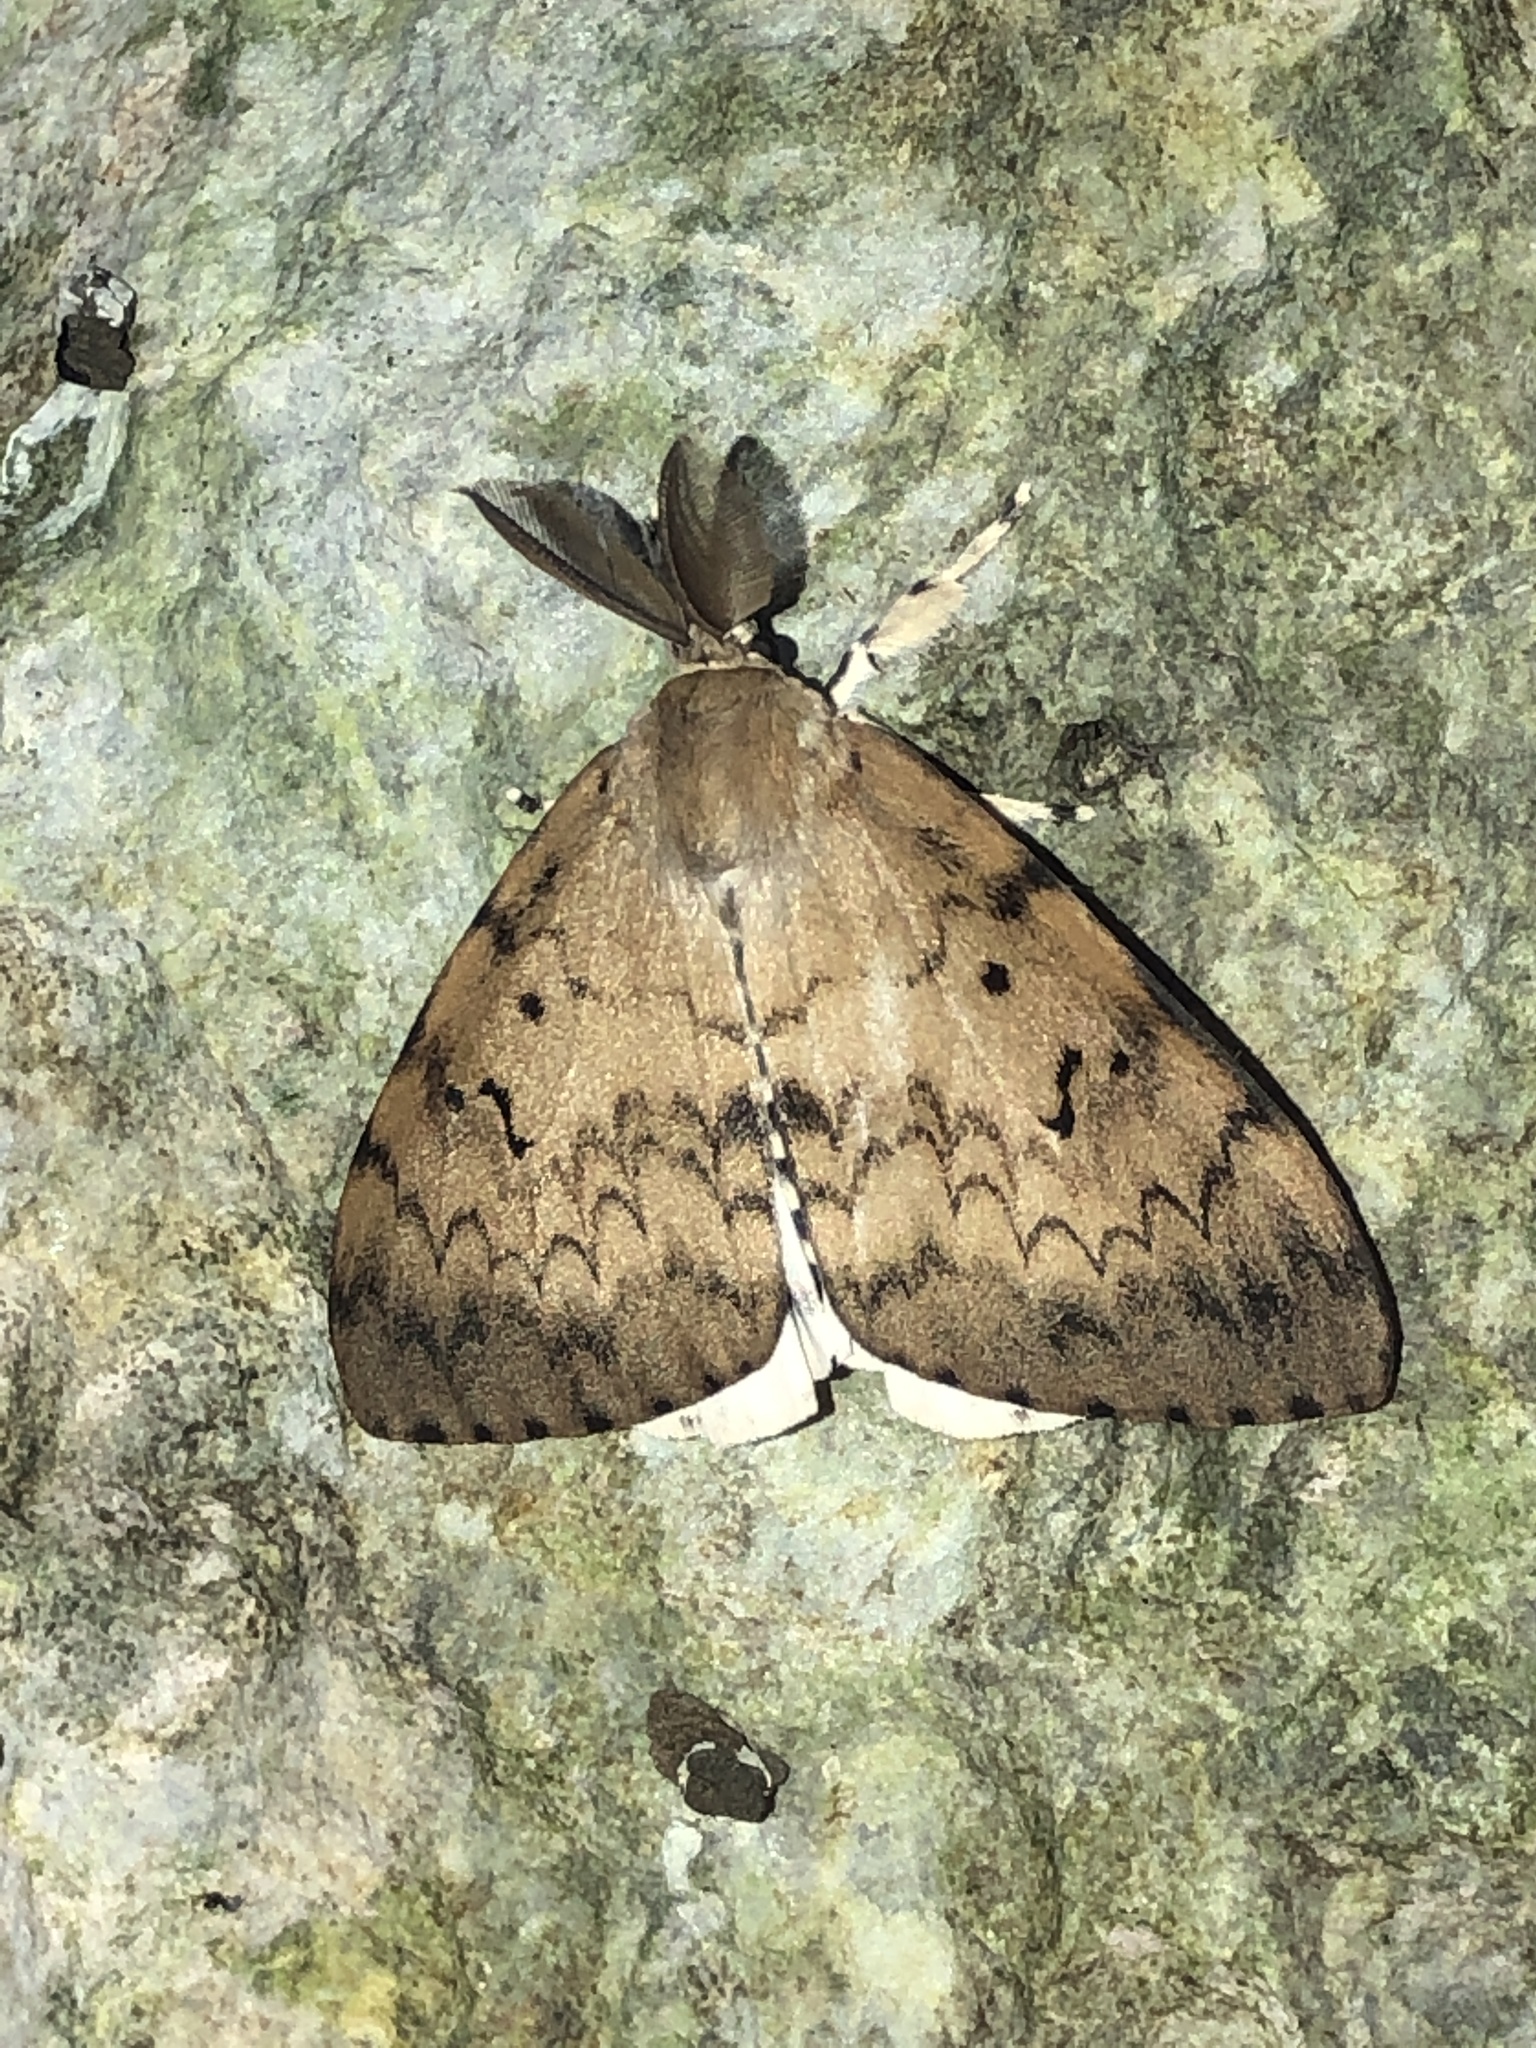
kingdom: Animalia
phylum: Arthropoda
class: Insecta
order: Lepidoptera
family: Erebidae
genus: Lymantria
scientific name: Lymantria albescens
